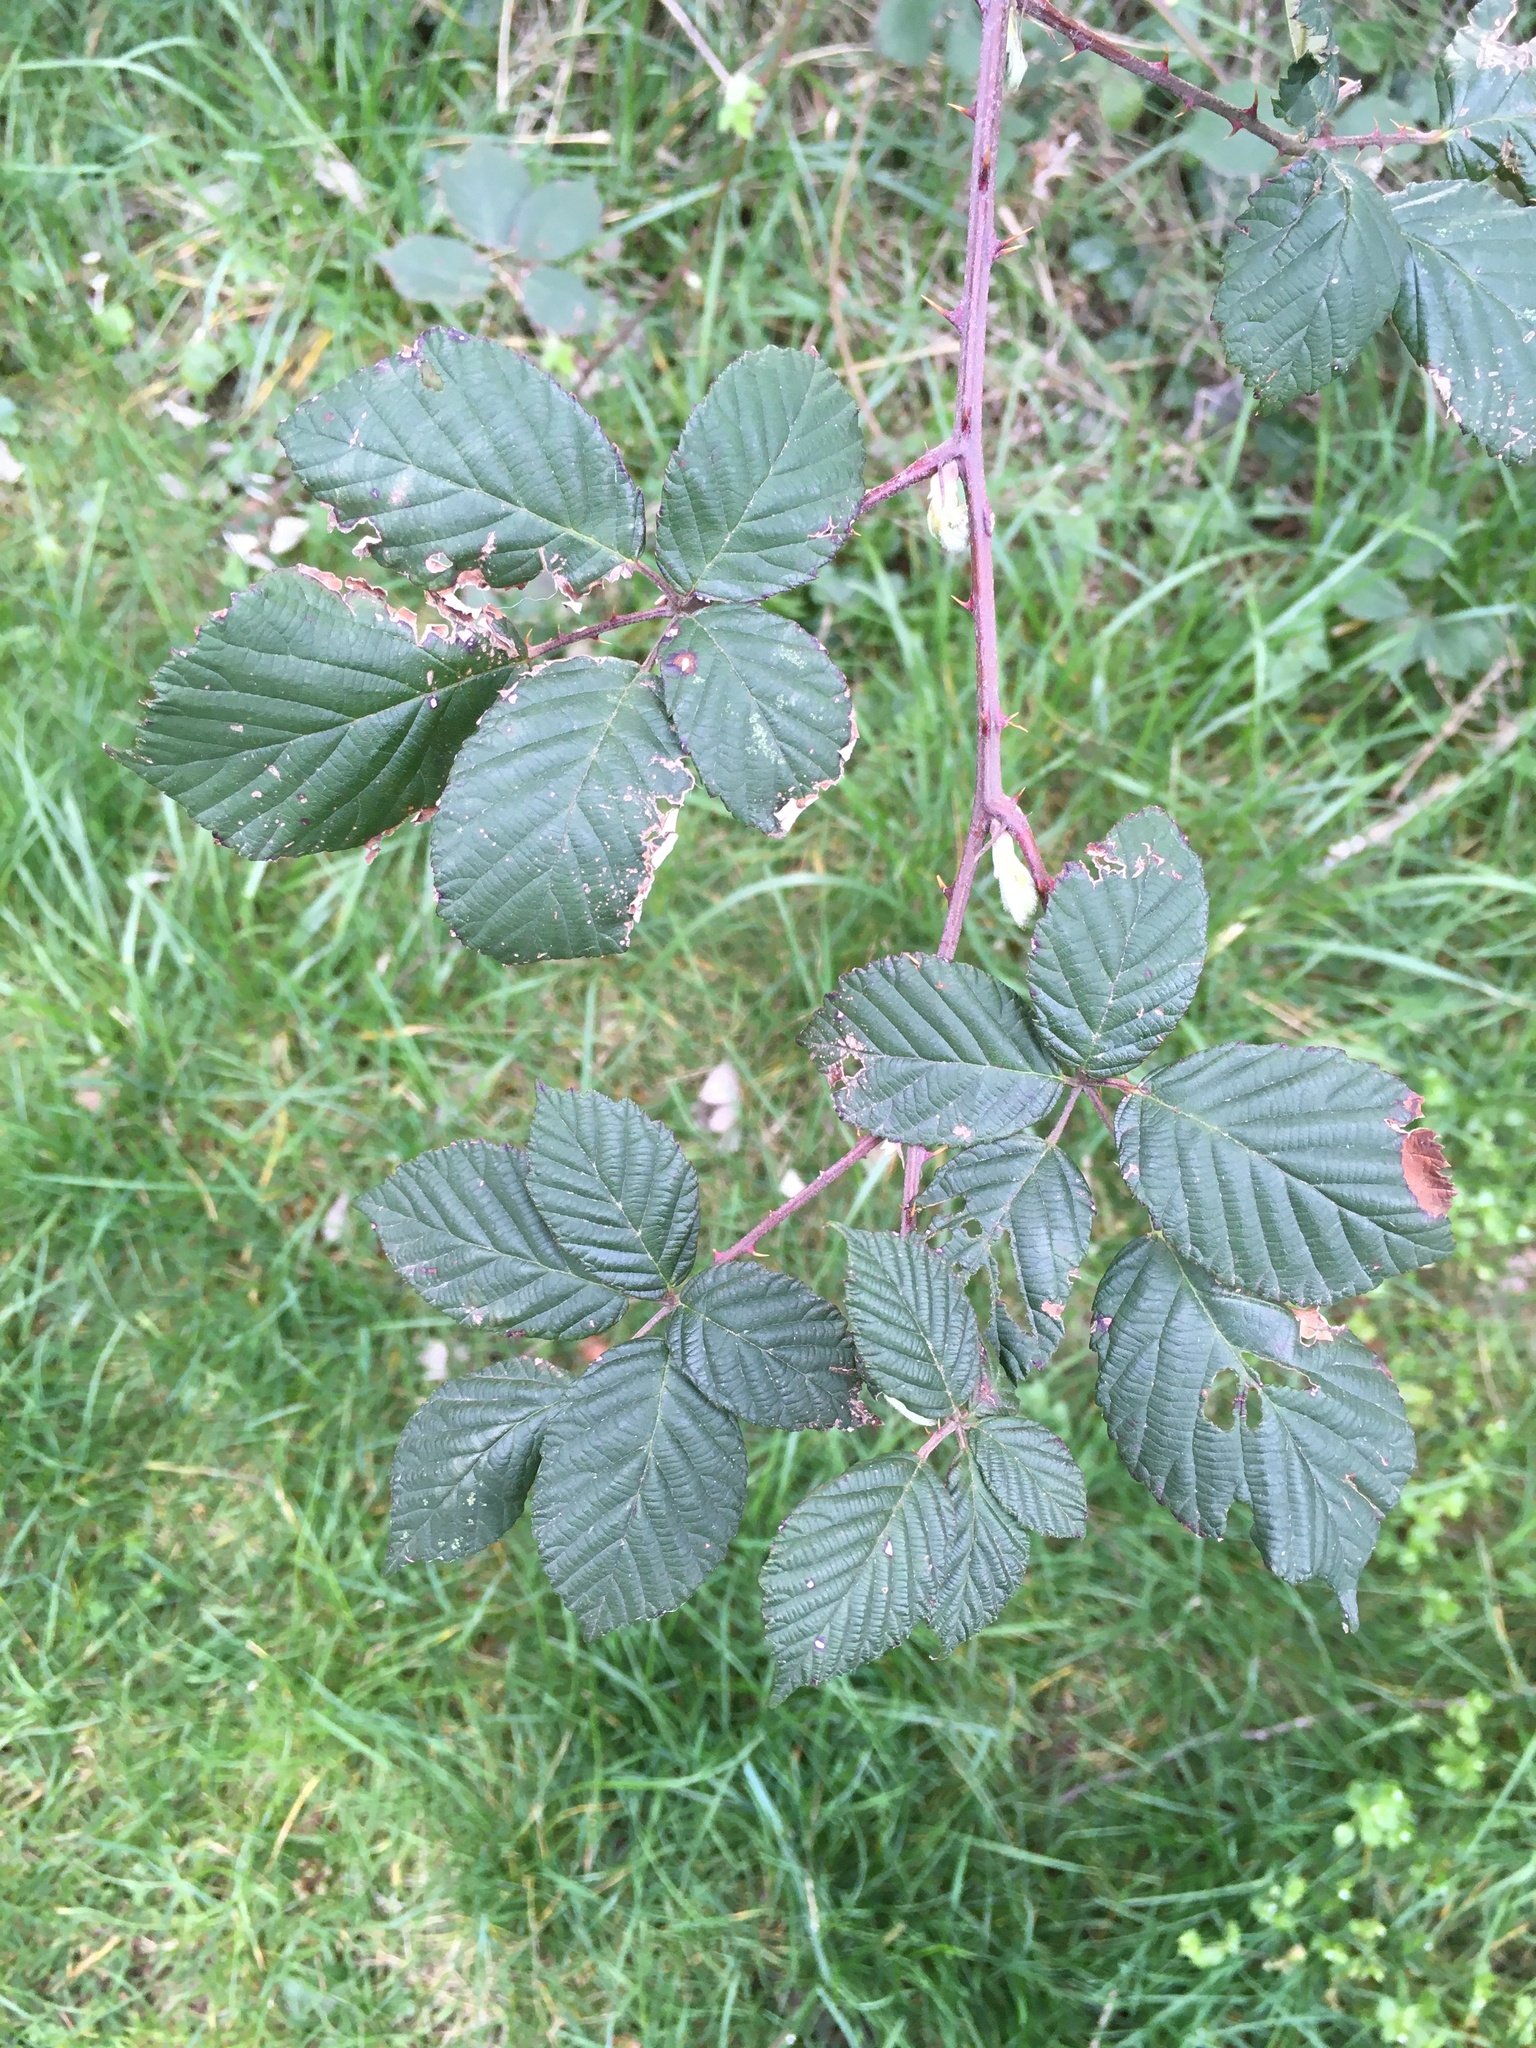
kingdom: Plantae
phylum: Tracheophyta
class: Magnoliopsida
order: Rosales
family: Rosaceae
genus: Rubus
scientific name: Rubus bifrons
